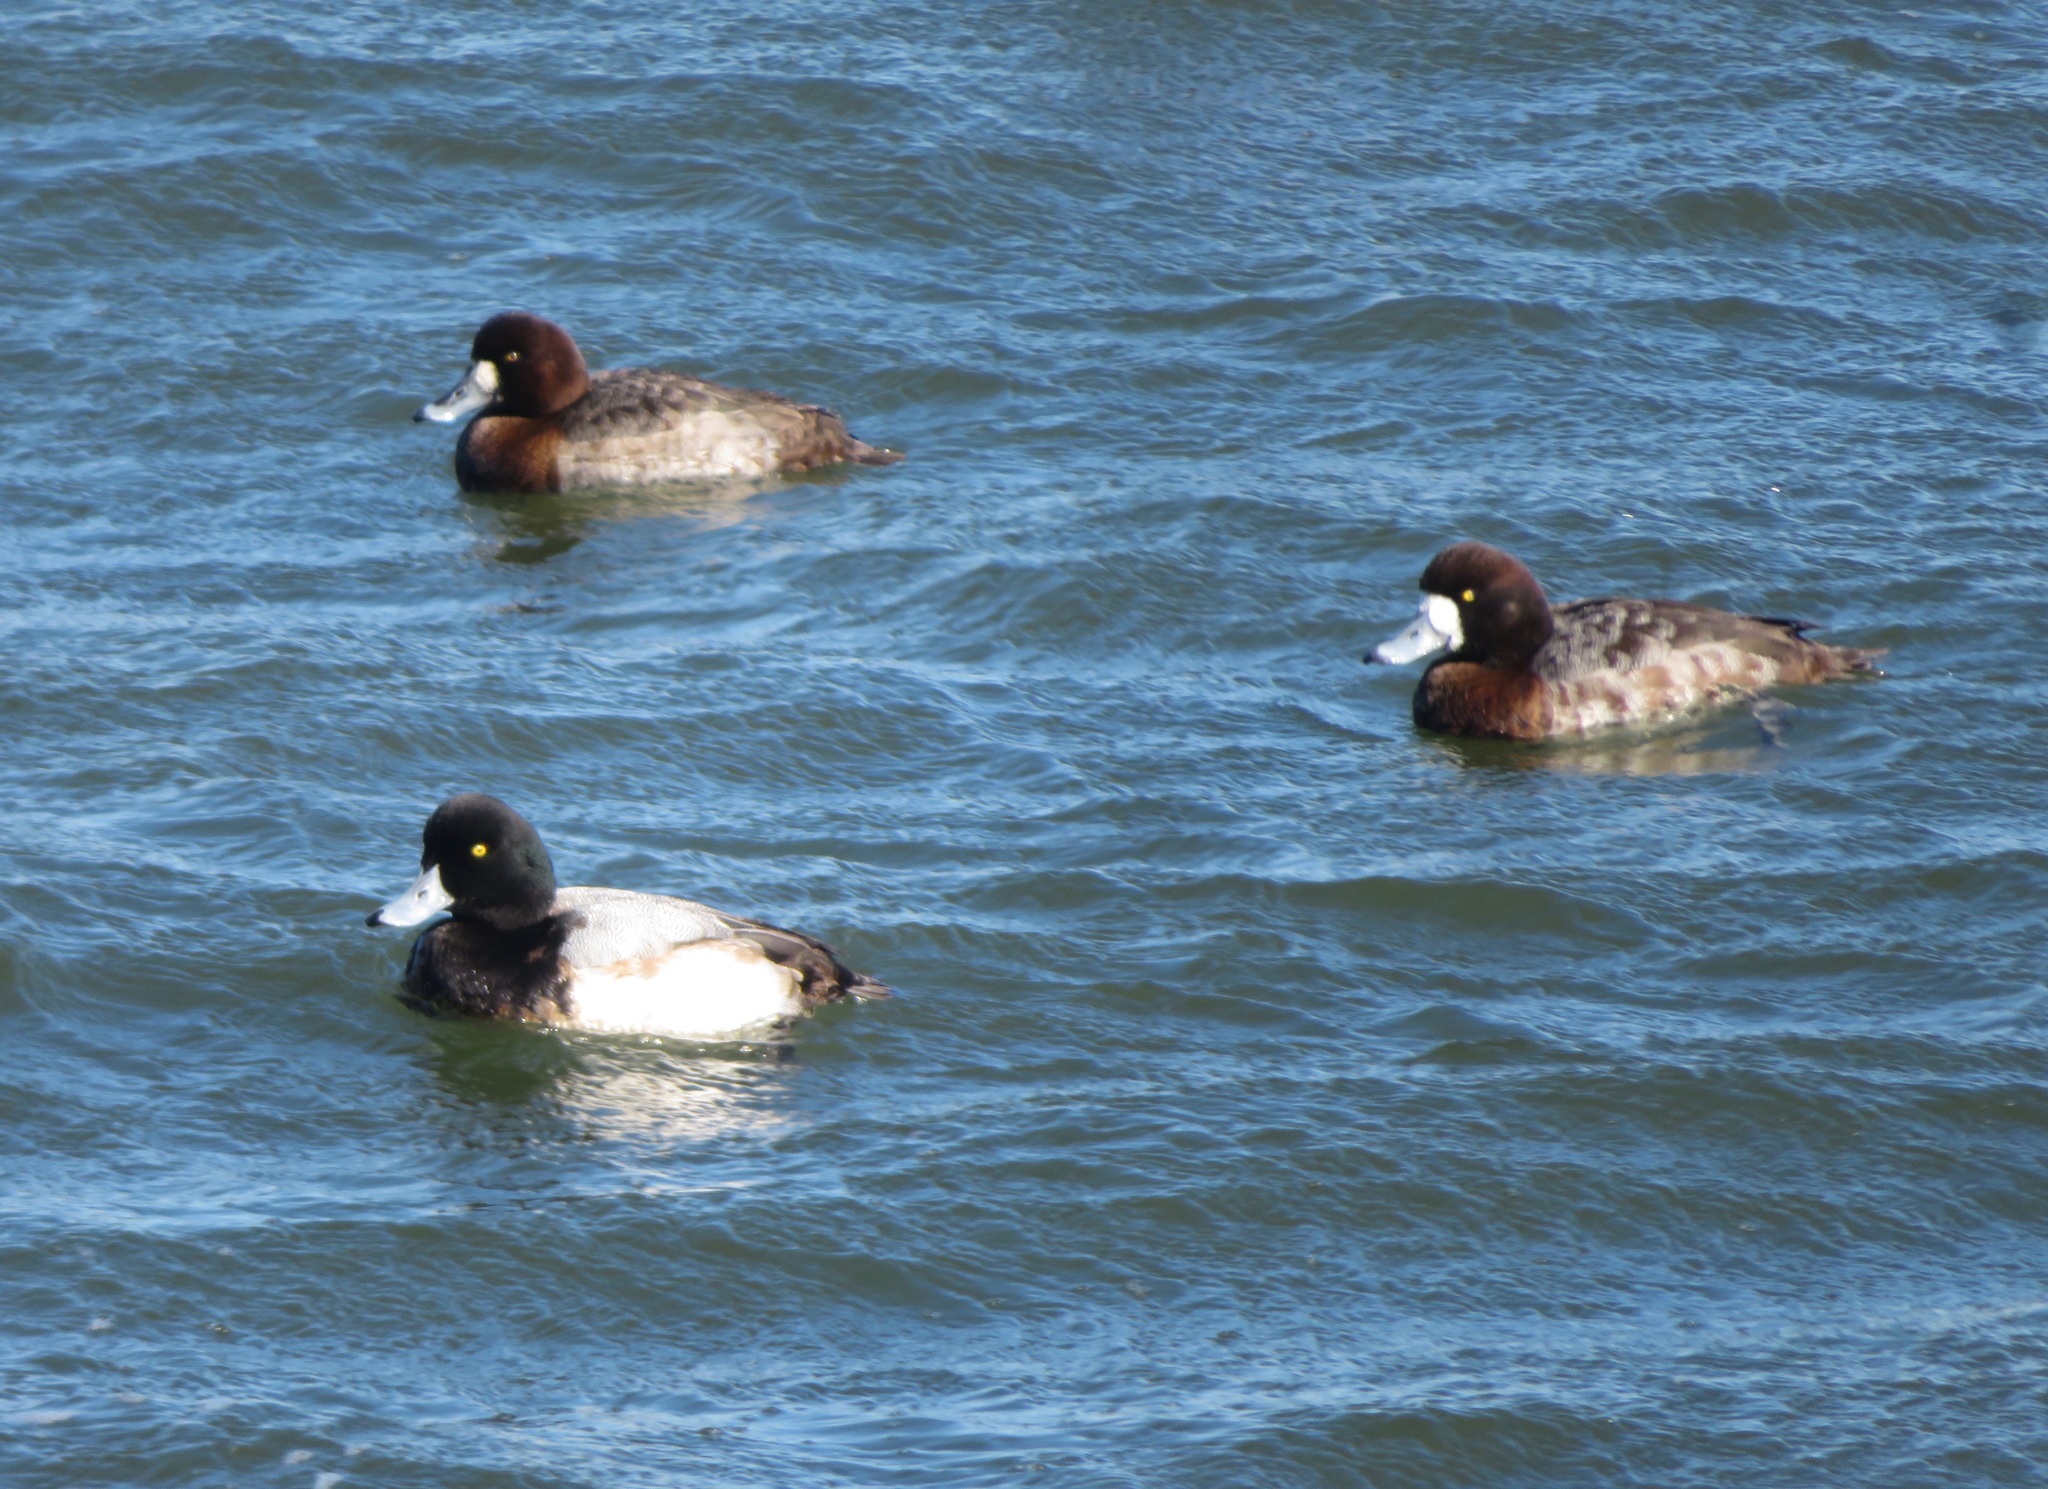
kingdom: Animalia
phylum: Chordata
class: Aves
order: Anseriformes
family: Anatidae
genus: Aythya
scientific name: Aythya marila
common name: Greater scaup
